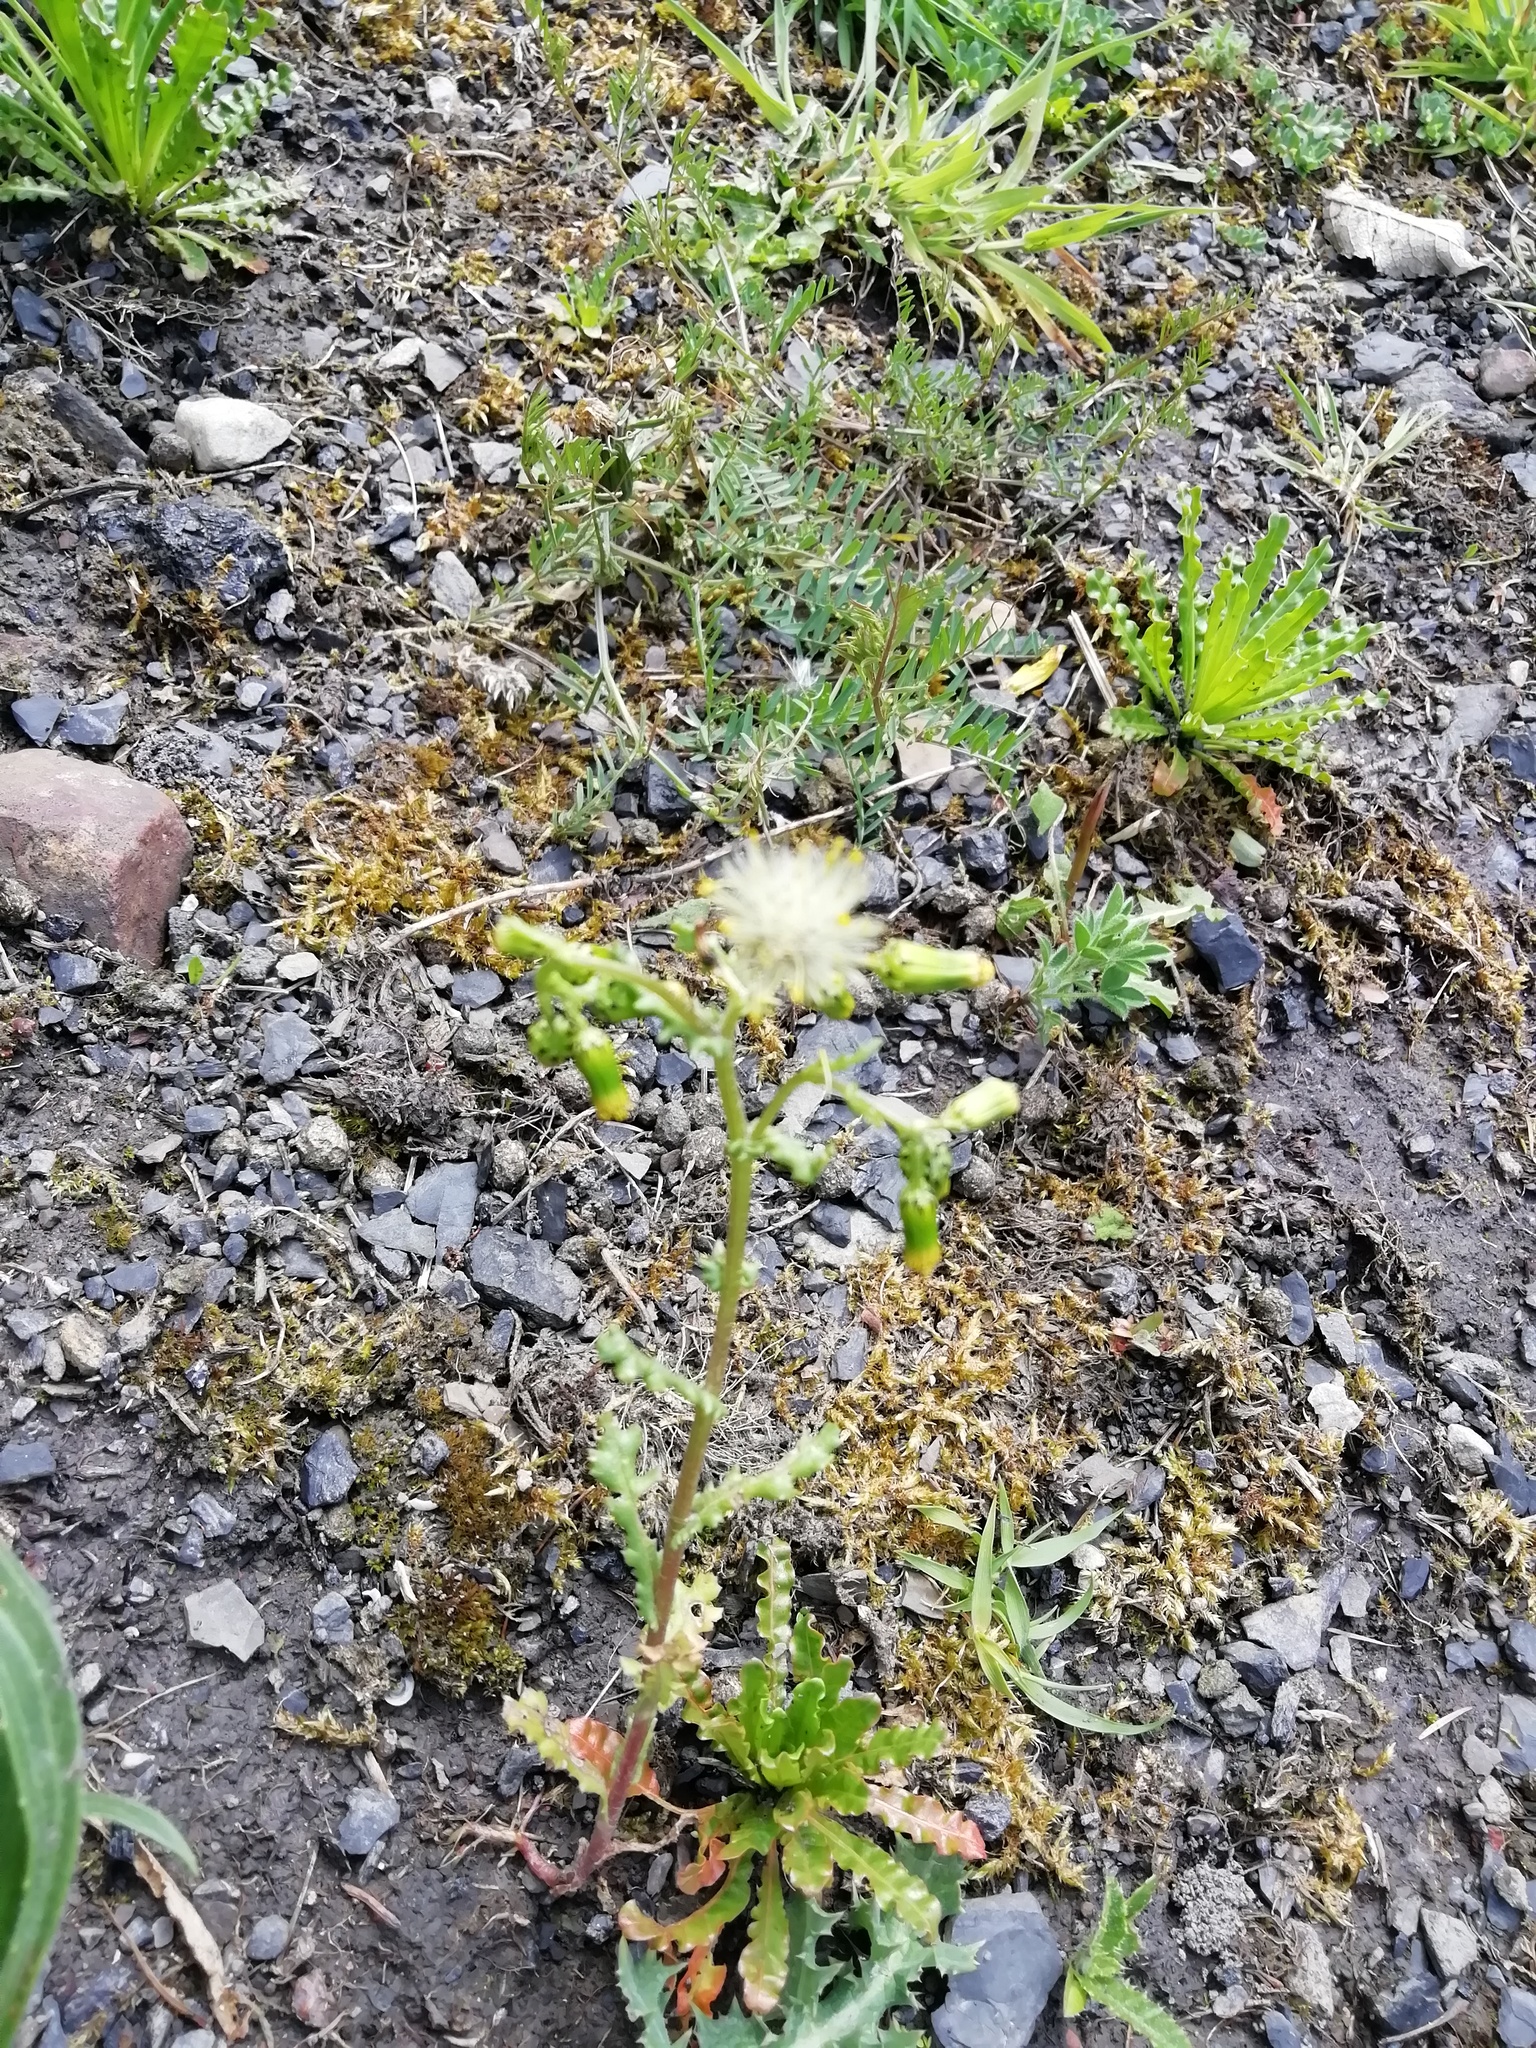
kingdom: Plantae
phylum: Tracheophyta
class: Magnoliopsida
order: Asterales
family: Asteraceae
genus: Senecio
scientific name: Senecio vulgaris
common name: Old-man-in-the-spring
